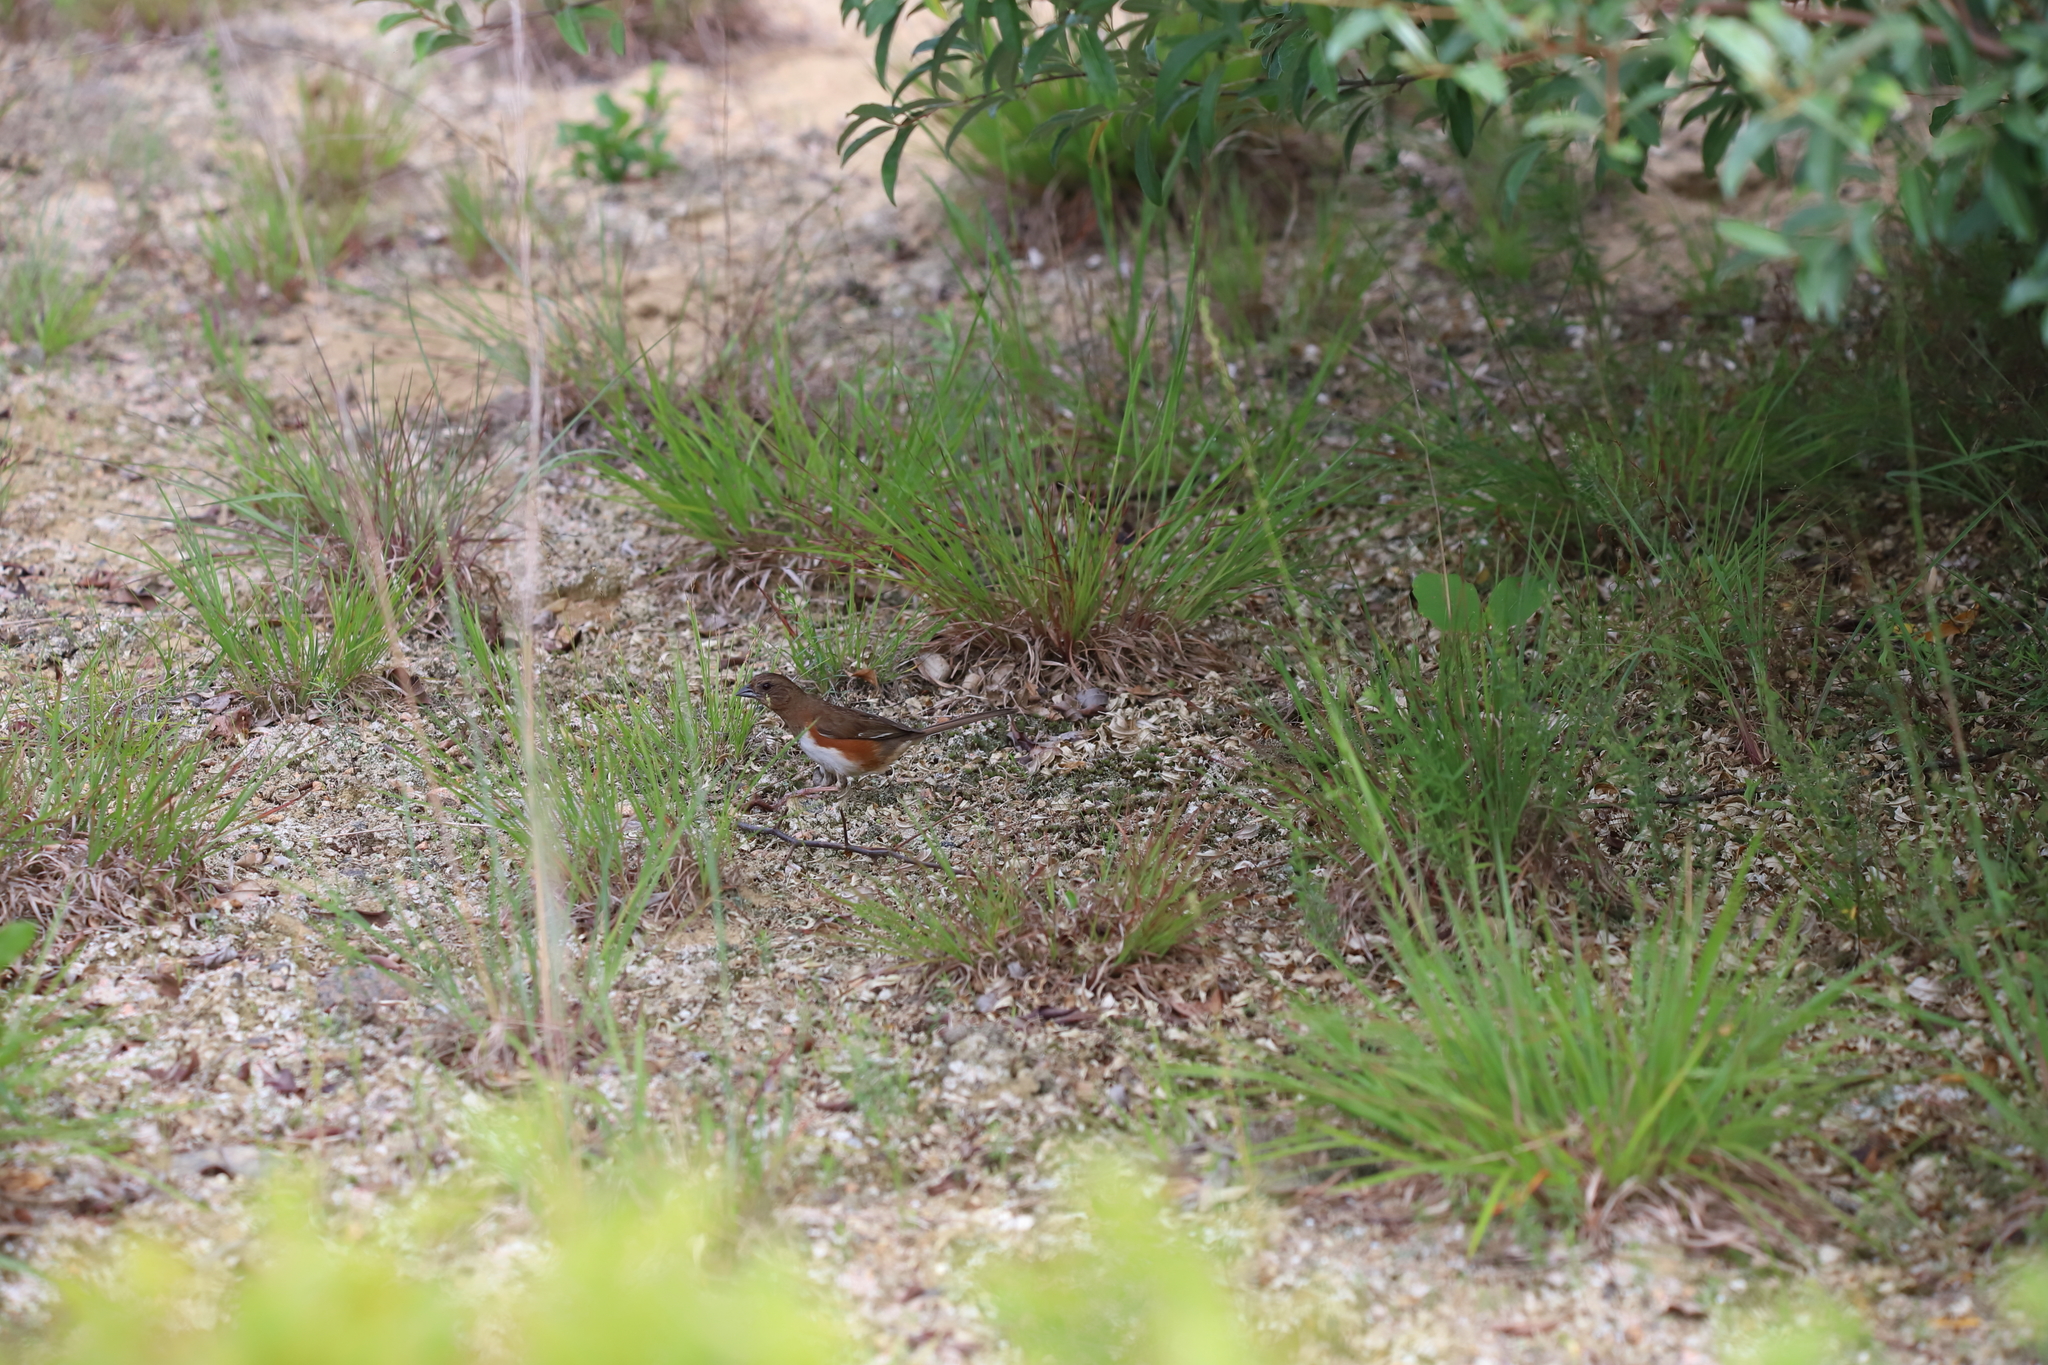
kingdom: Animalia
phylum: Chordata
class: Aves
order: Passeriformes
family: Passerellidae
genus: Pipilo
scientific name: Pipilo erythrophthalmus
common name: Eastern towhee
